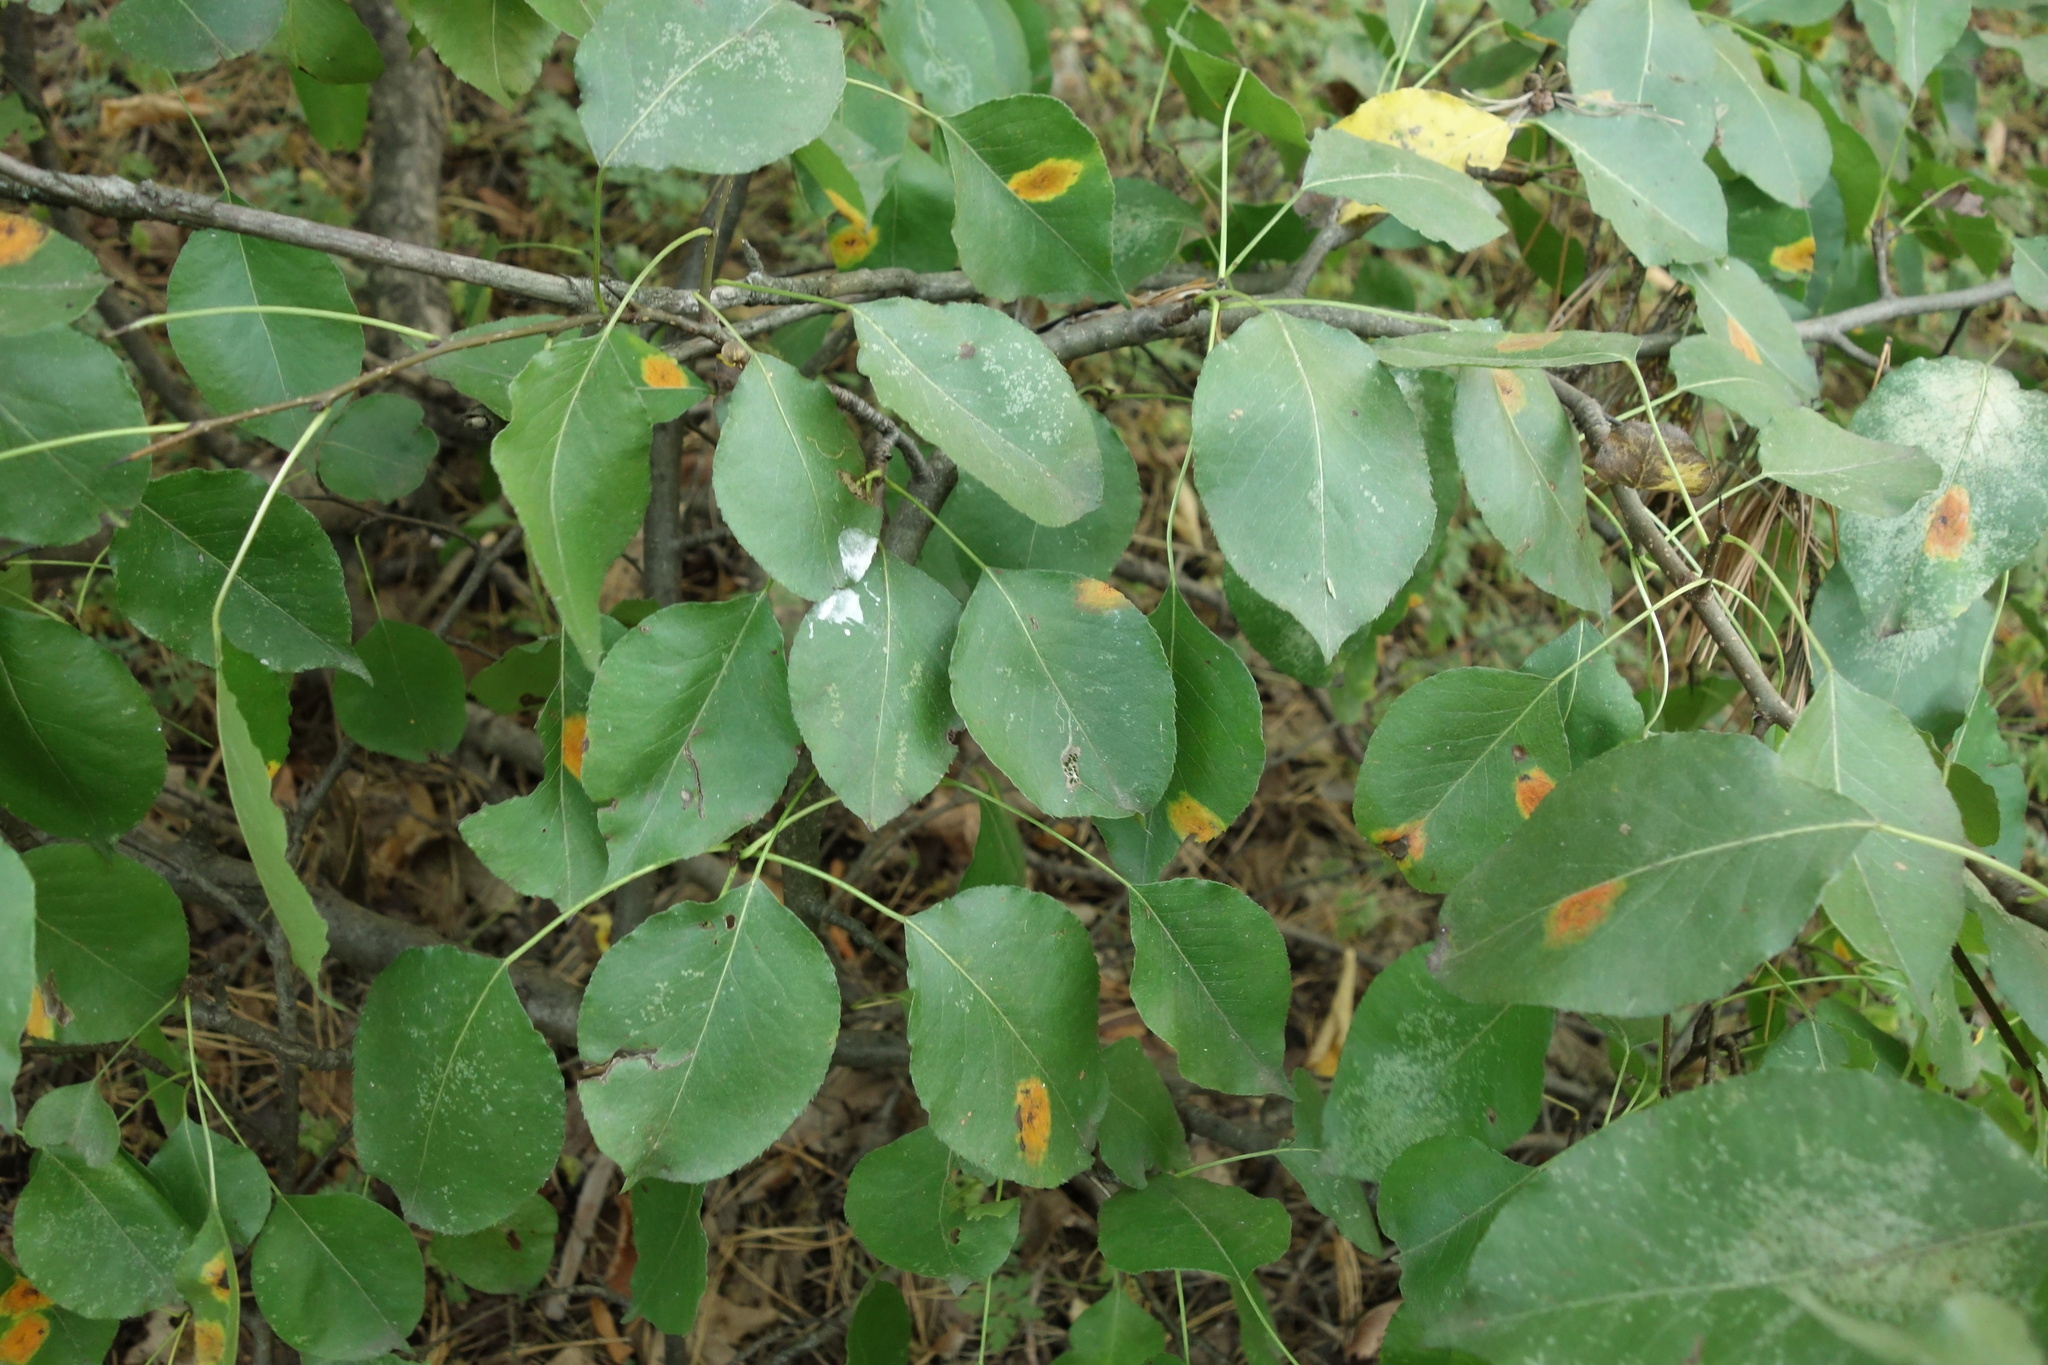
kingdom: Plantae
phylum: Tracheophyta
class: Magnoliopsida
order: Rosales
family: Rosaceae
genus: Pyrus
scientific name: Pyrus communis
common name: Pear
